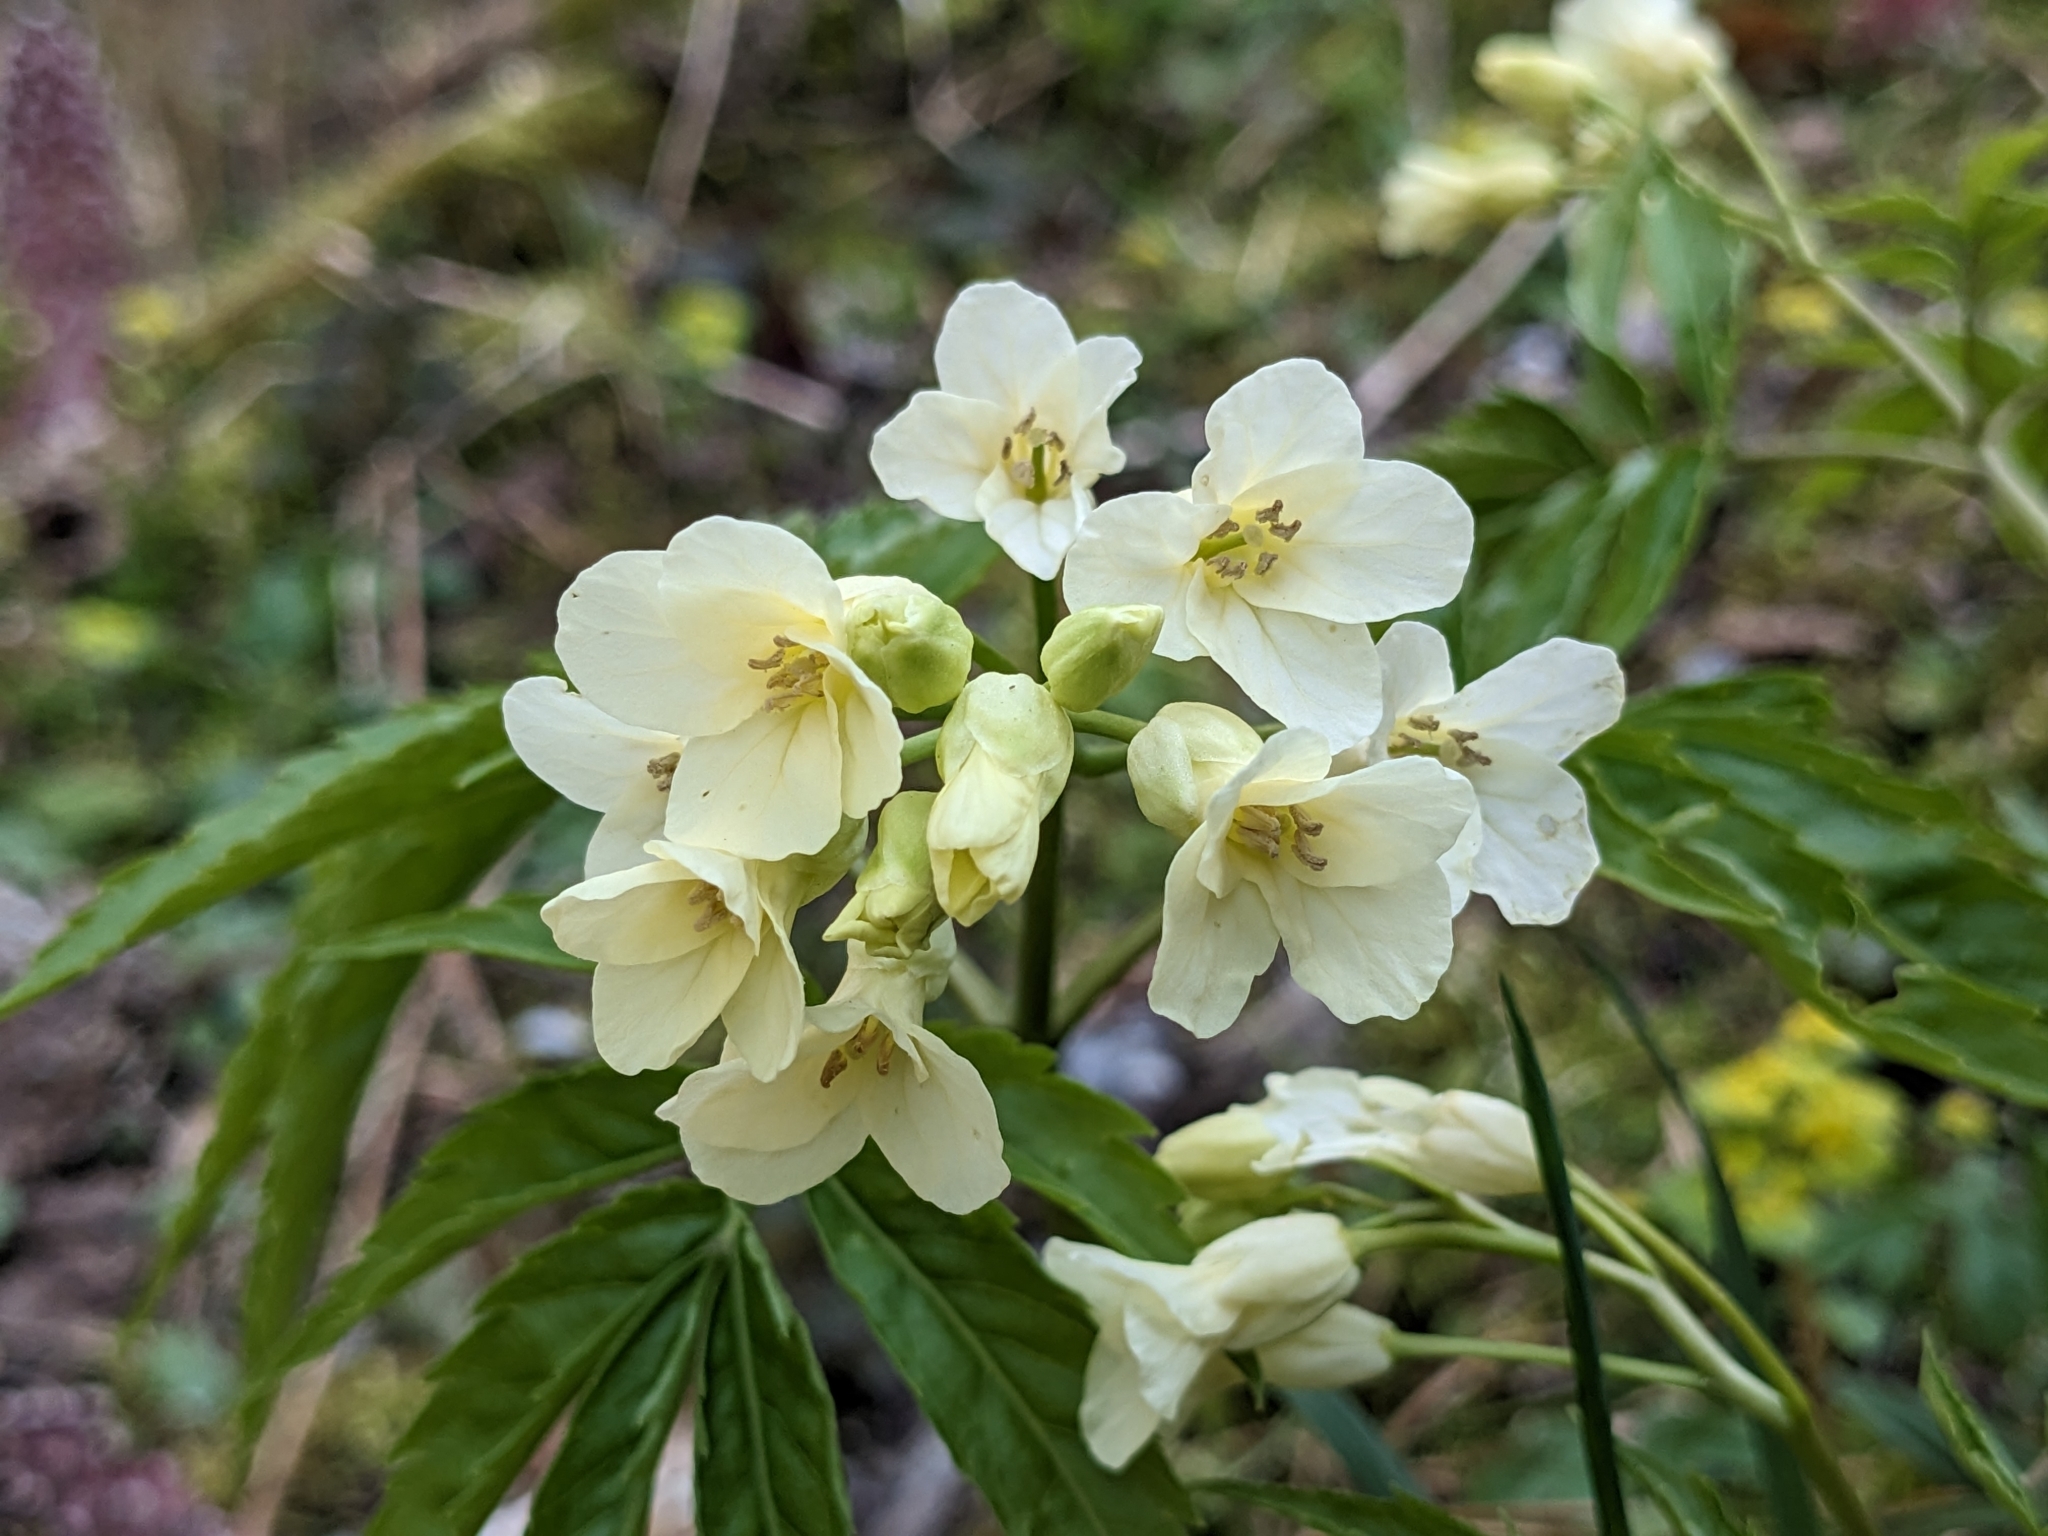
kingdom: Plantae
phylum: Tracheophyta
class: Magnoliopsida
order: Brassicales
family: Brassicaceae
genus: Cardamine
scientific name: Cardamine kitaibelii
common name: Kitaibel's bitter-cress
